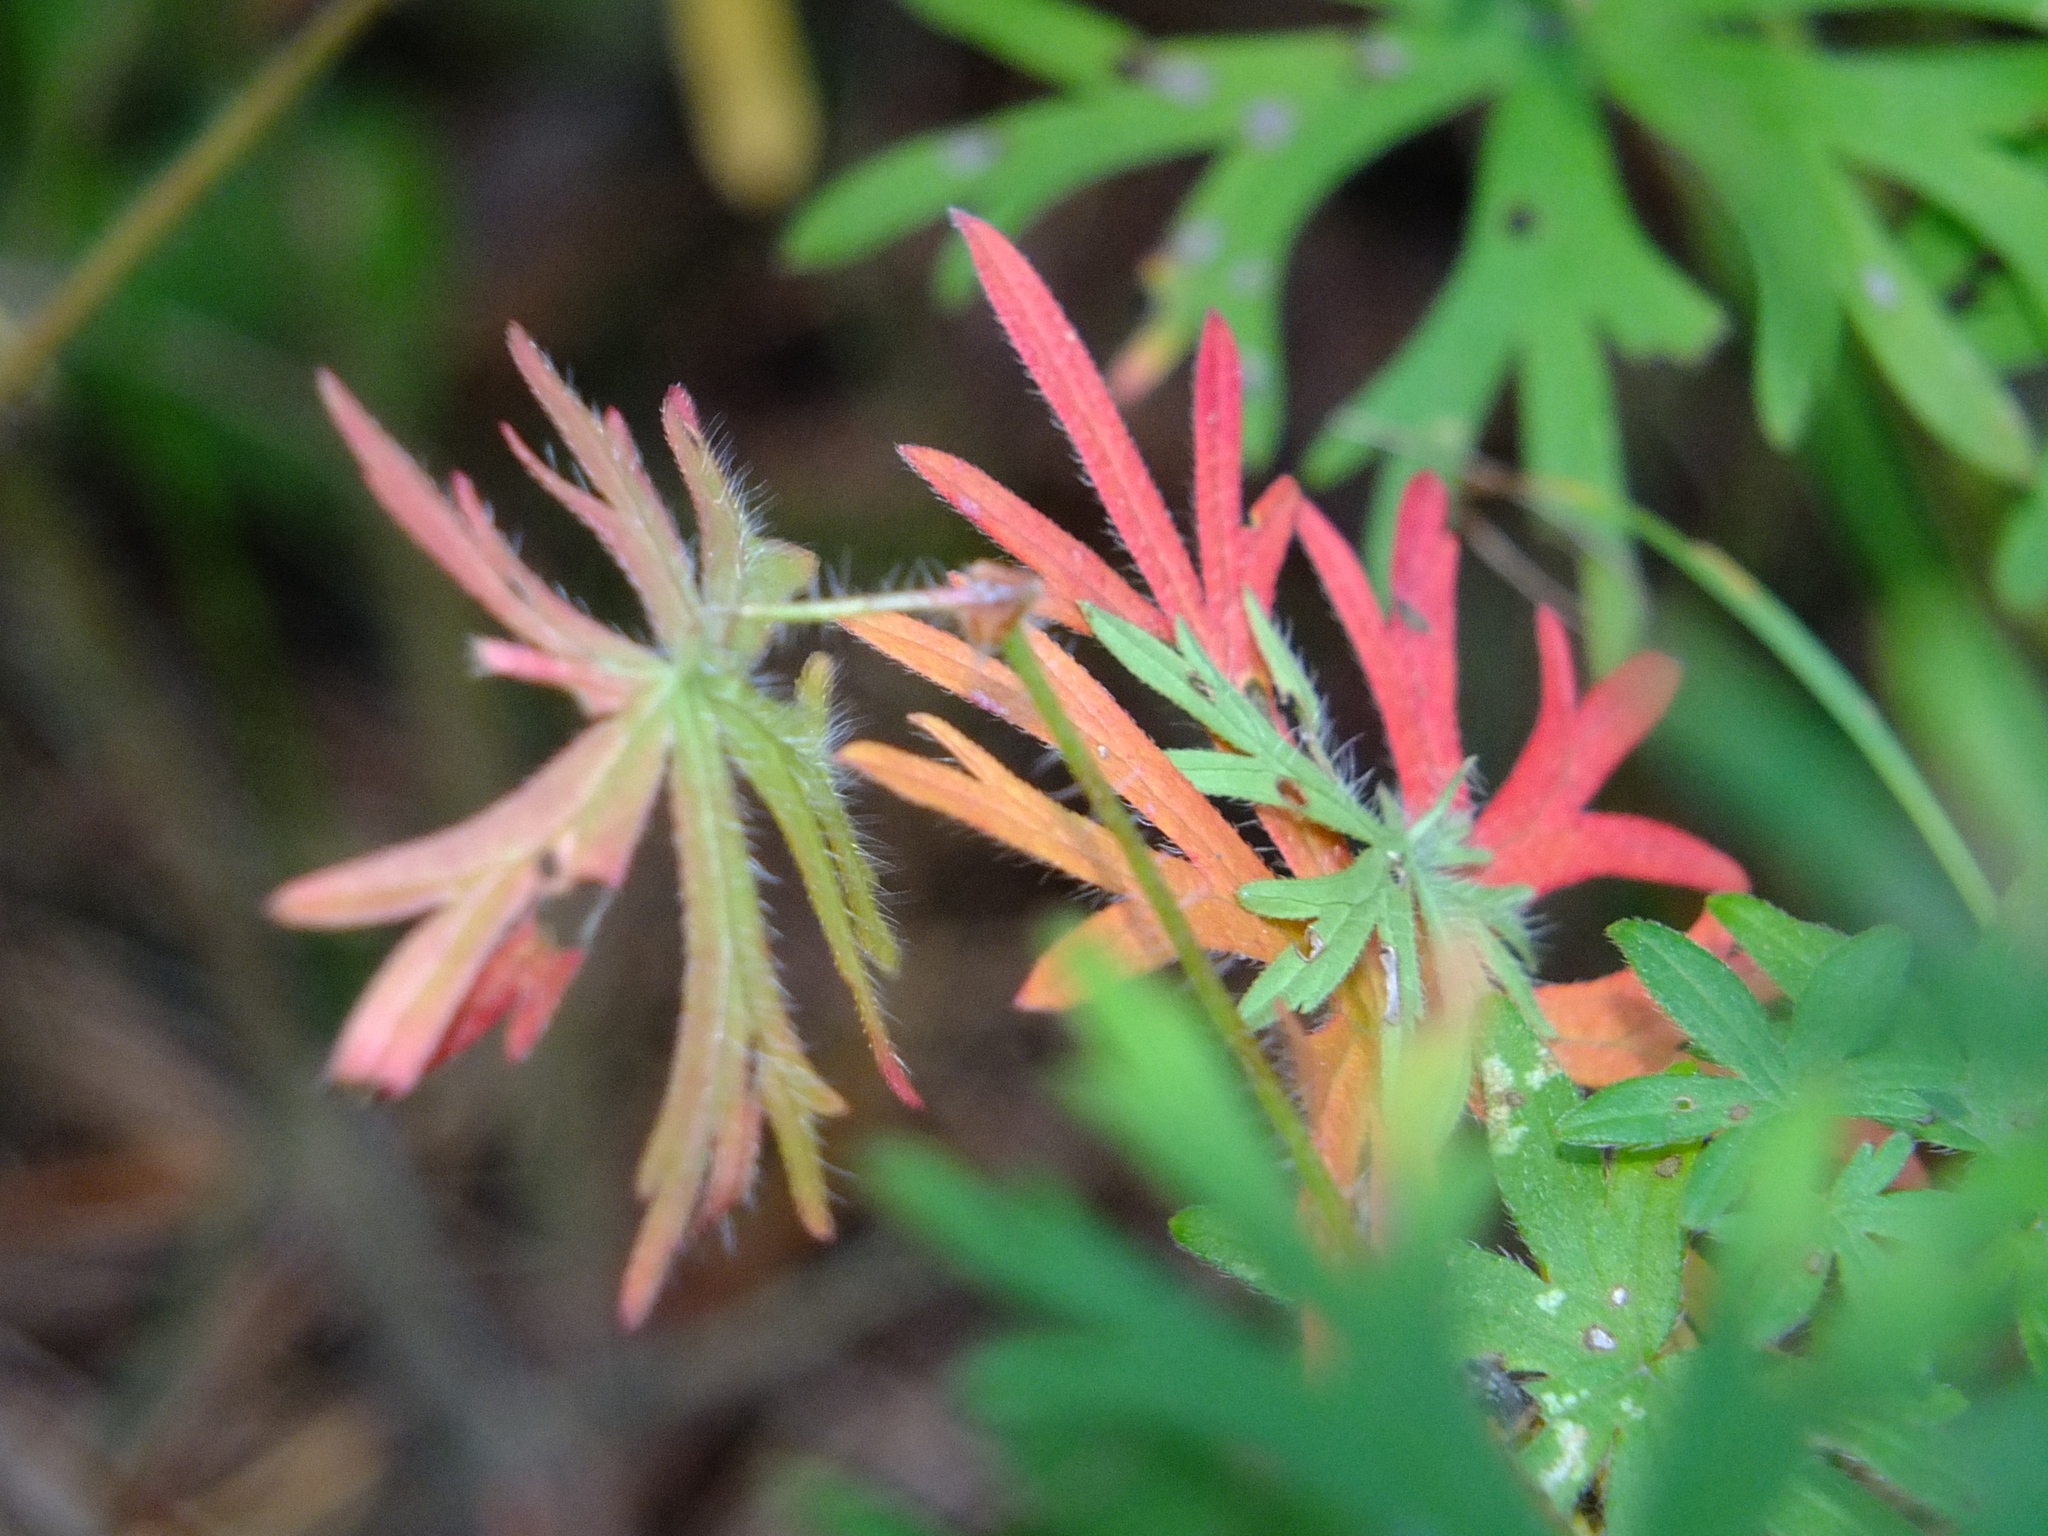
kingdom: Plantae
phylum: Tracheophyta
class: Magnoliopsida
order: Geraniales
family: Geraniaceae
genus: Geranium
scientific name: Geranium sanguineum
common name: Bloody crane's-bill
